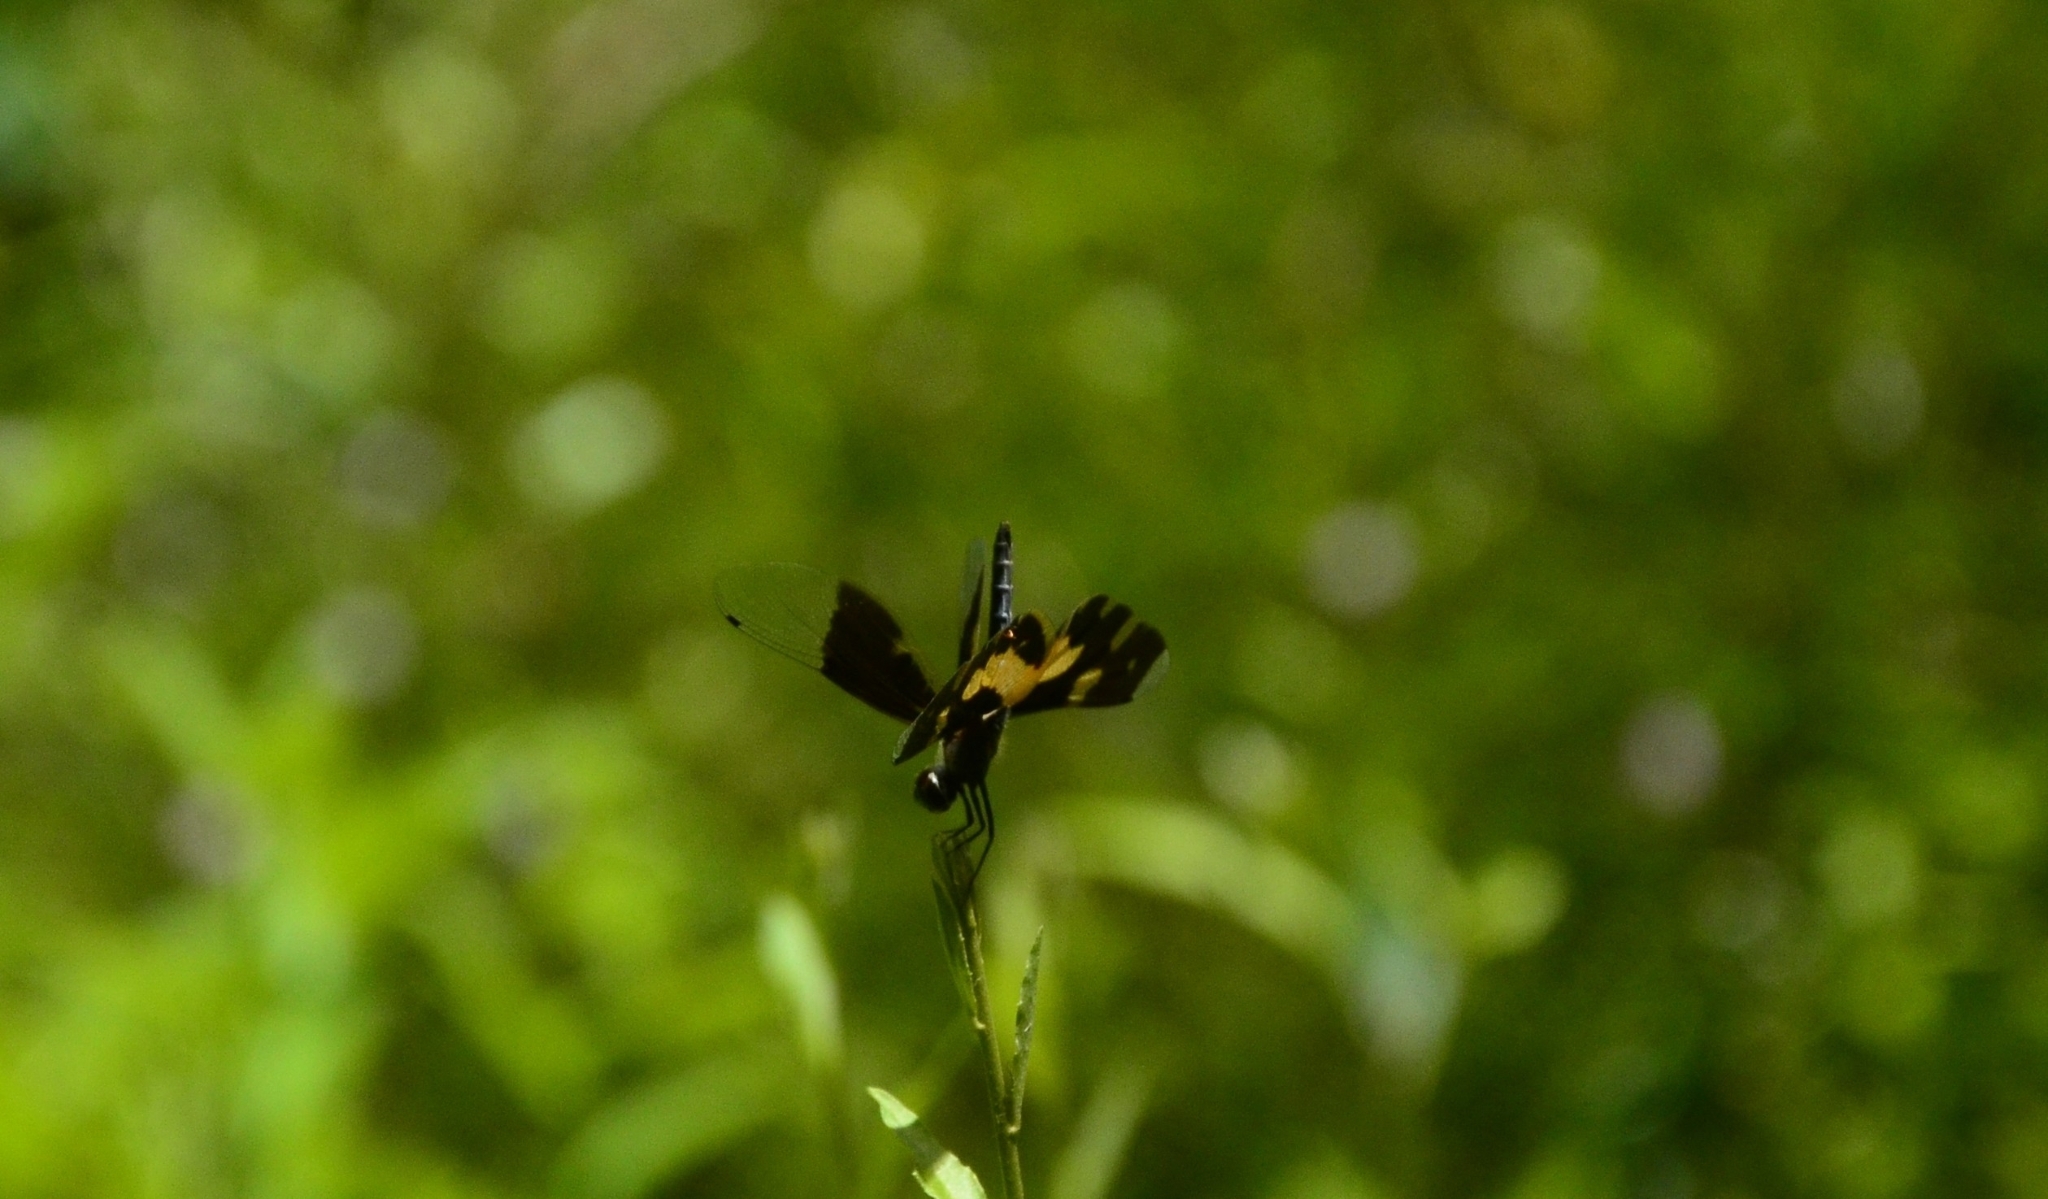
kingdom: Animalia
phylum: Arthropoda
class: Insecta
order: Odonata
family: Libellulidae
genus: Rhyothemis
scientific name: Rhyothemis variegata
